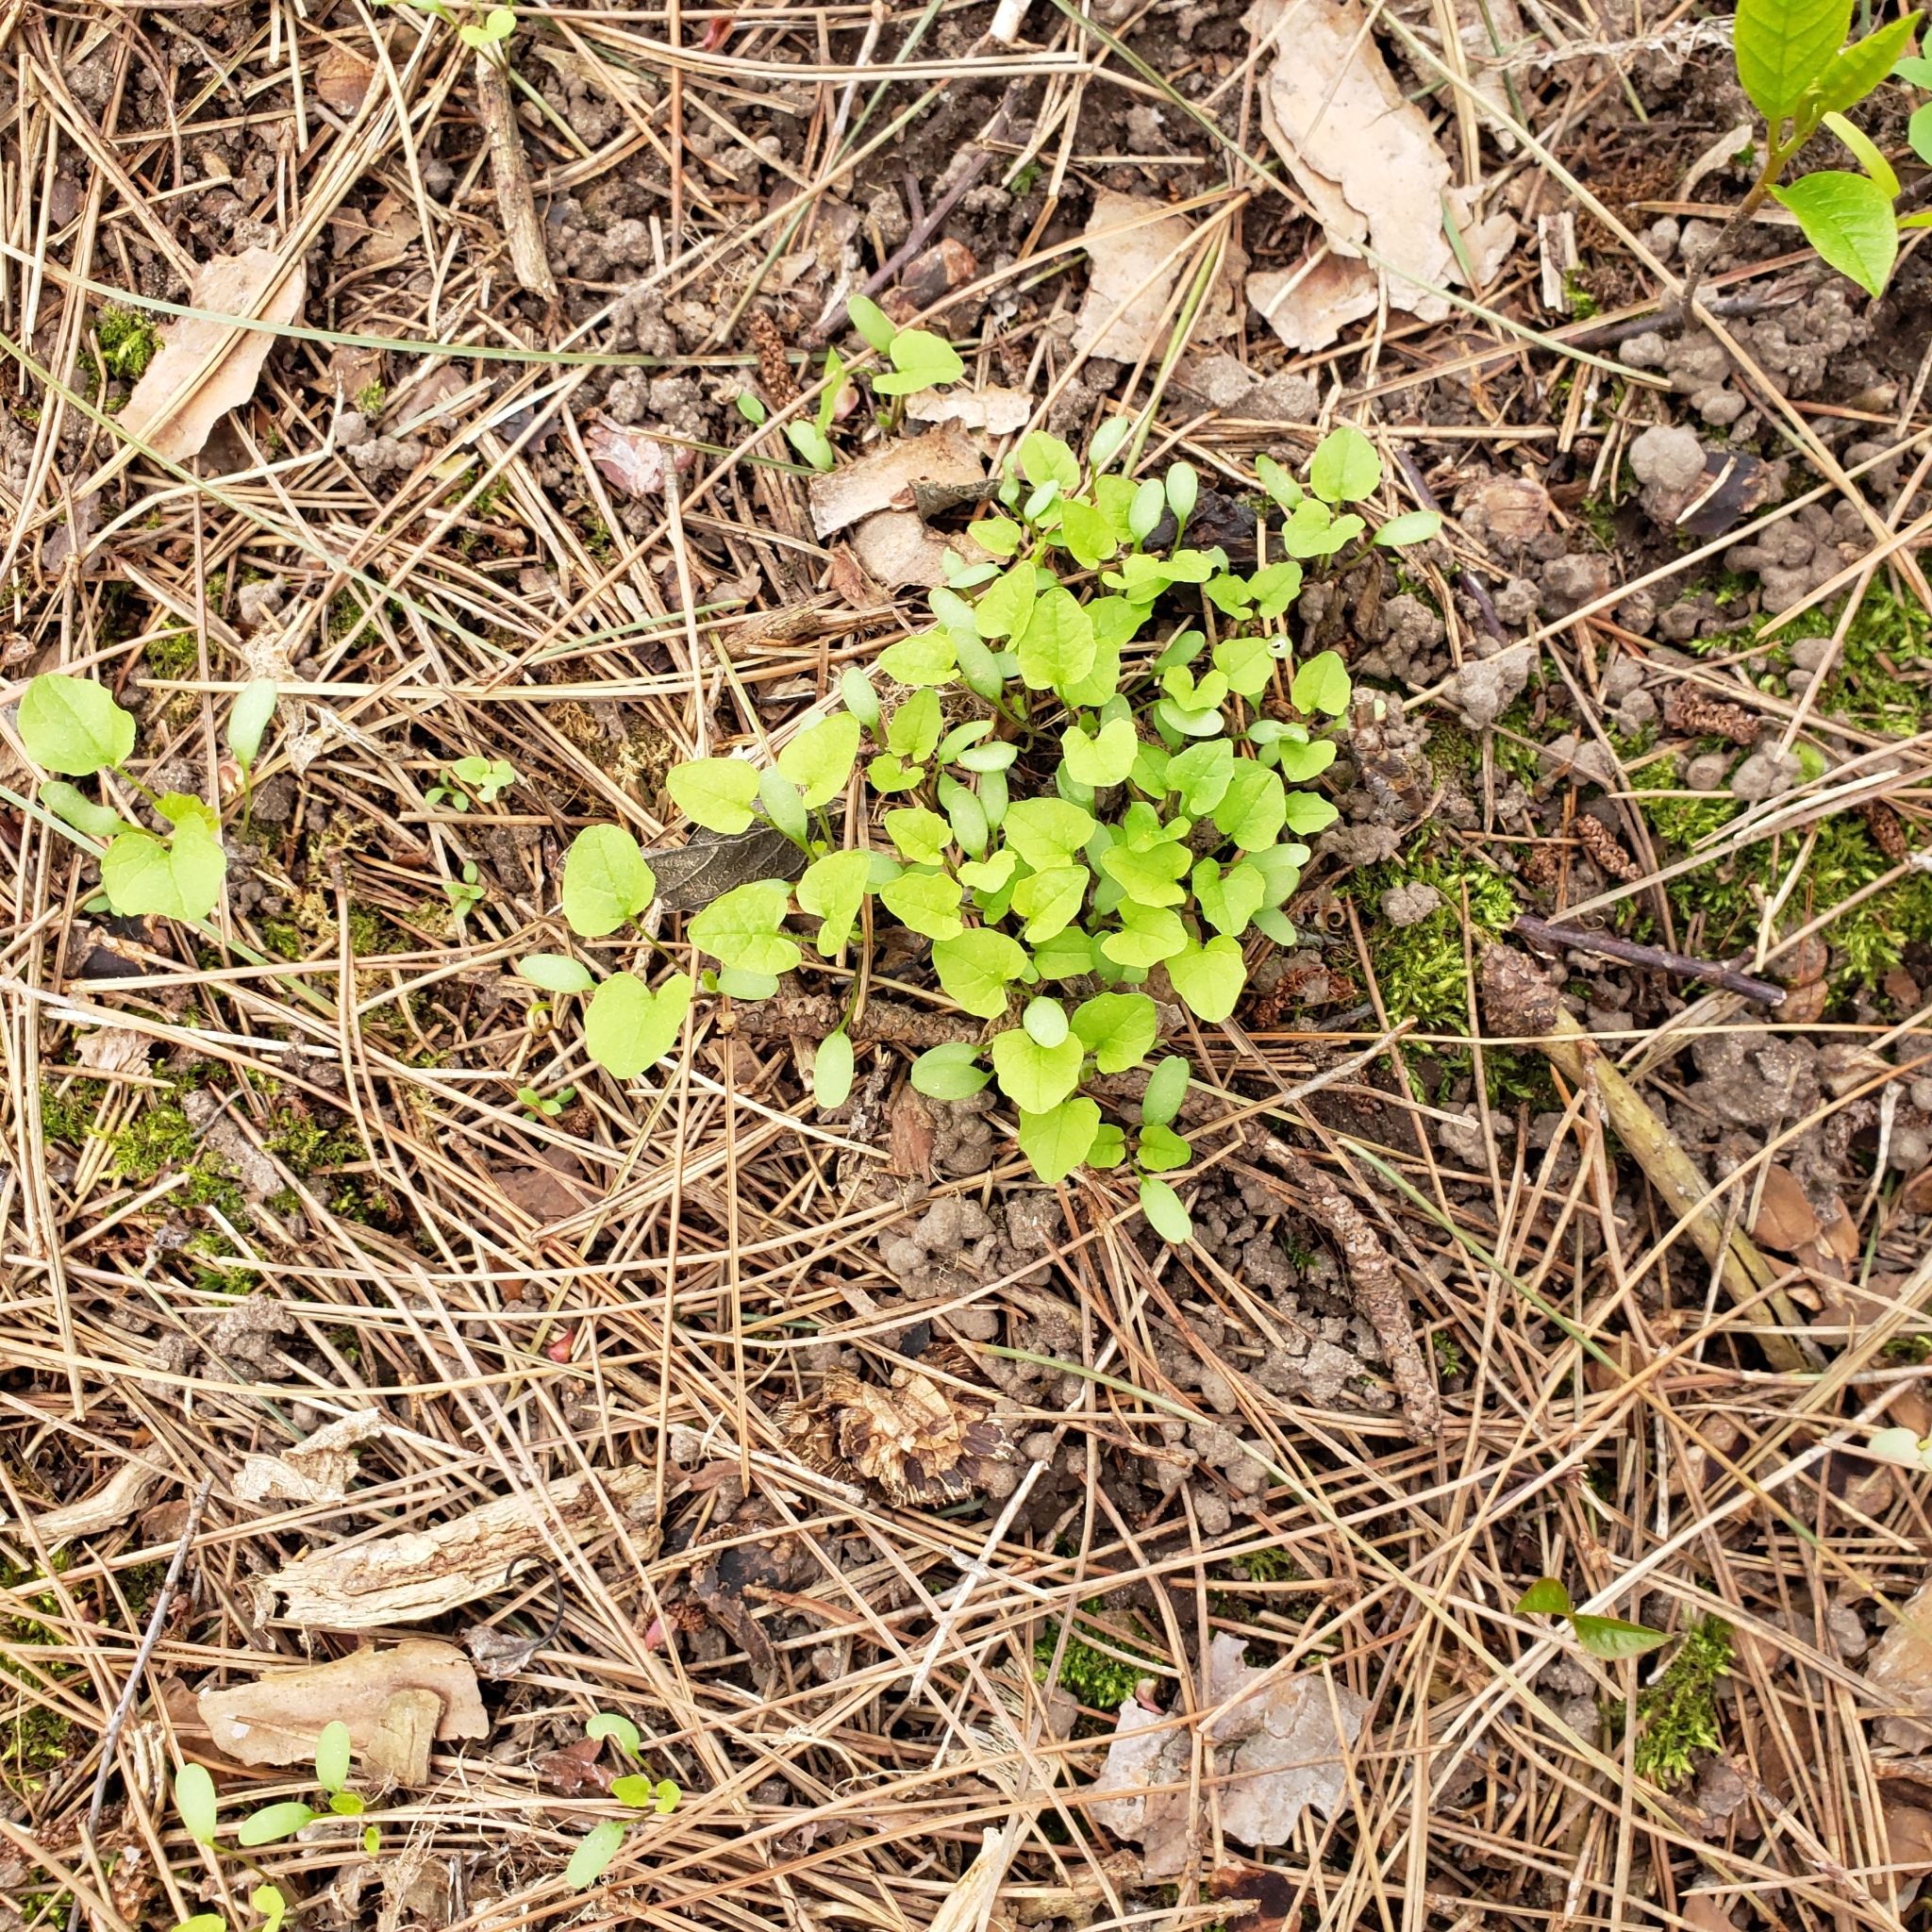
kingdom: Plantae
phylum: Tracheophyta
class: Magnoliopsida
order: Brassicales
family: Brassicaceae
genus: Alliaria
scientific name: Alliaria petiolata
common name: Garlic mustard
